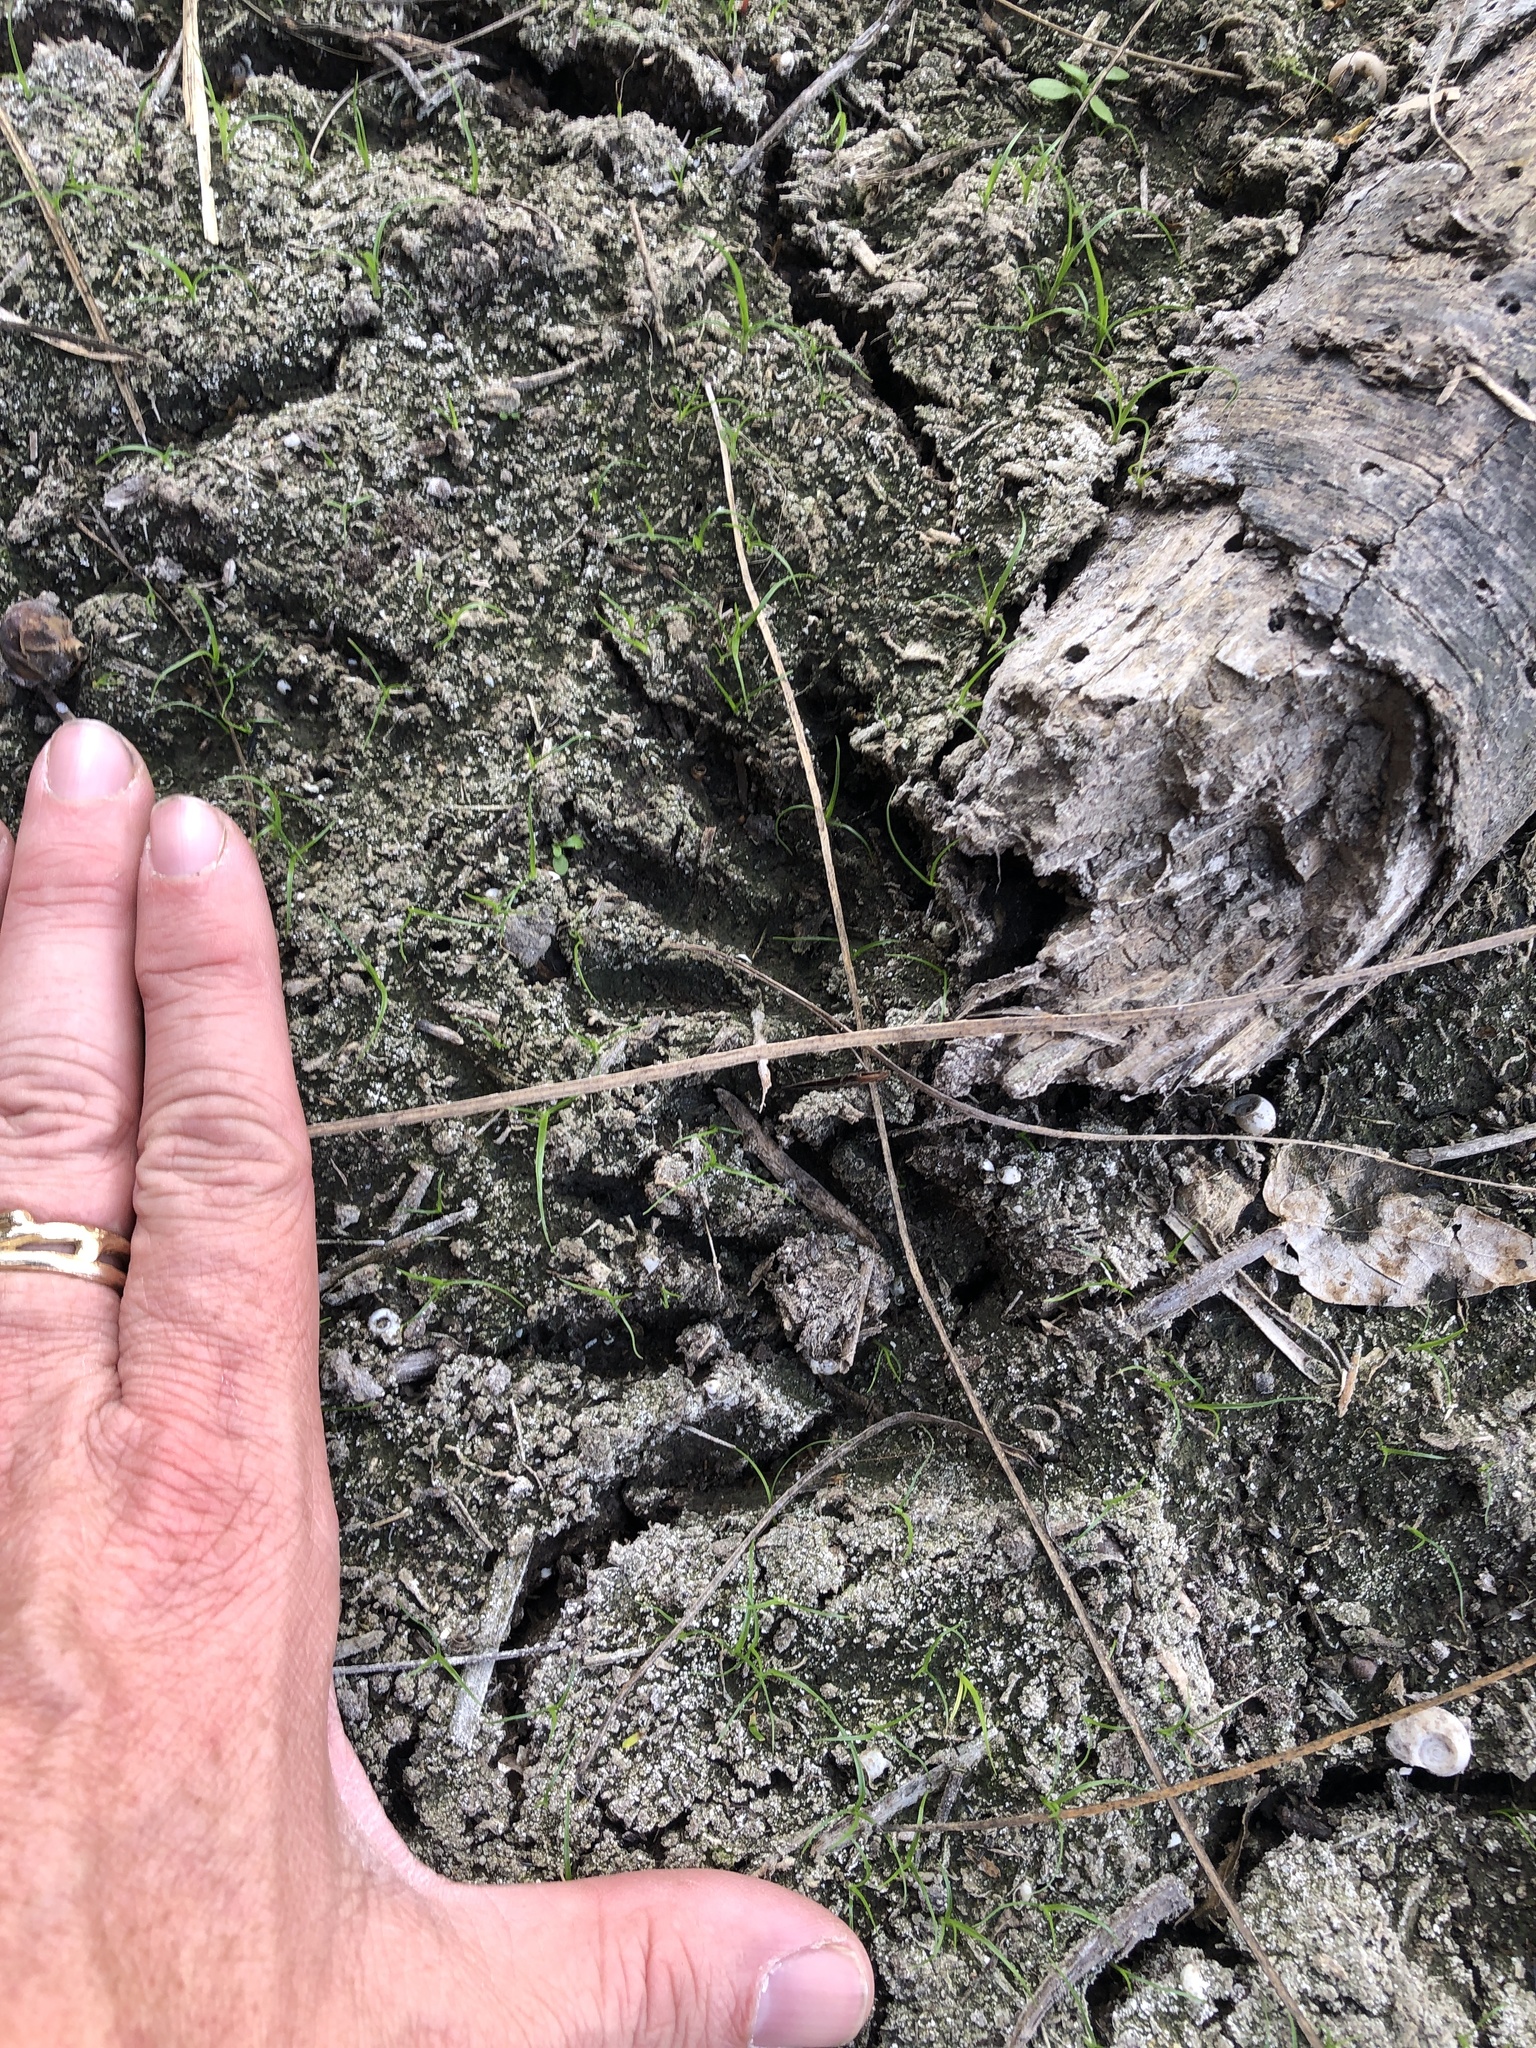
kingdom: Animalia
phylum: Chordata
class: Mammalia
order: Carnivora
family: Procyonidae
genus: Procyon
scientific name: Procyon lotor
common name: Raccoon
